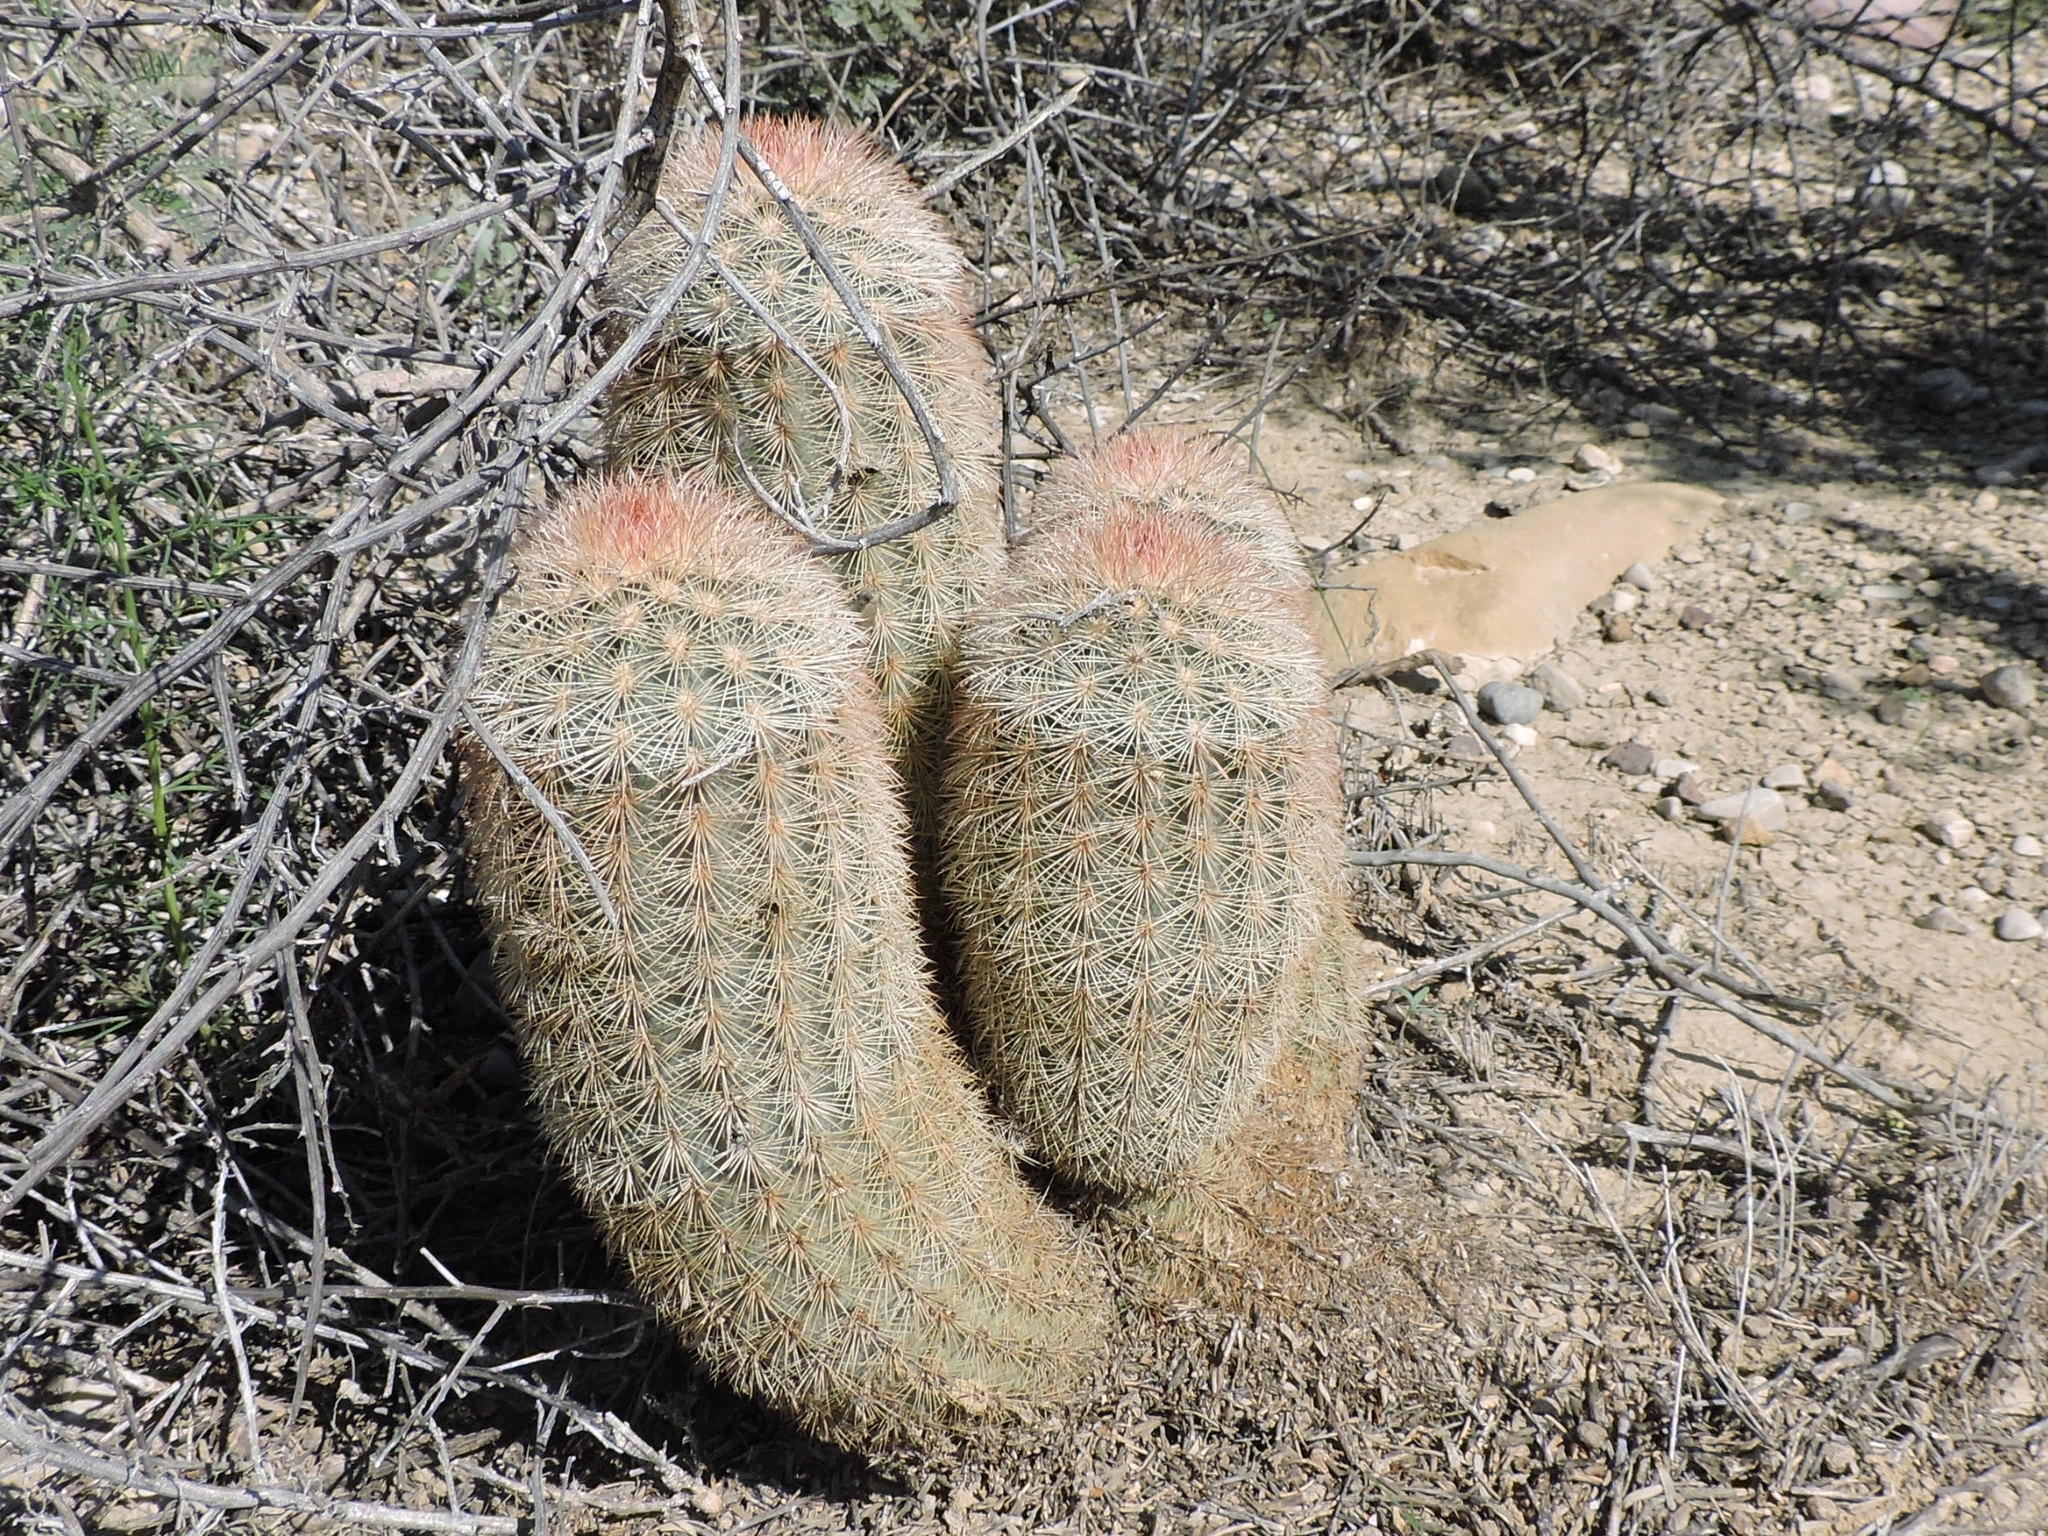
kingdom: Plantae
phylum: Tracheophyta
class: Magnoliopsida
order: Caryophyllales
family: Cactaceae
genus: Echinocereus
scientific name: Echinocereus dasyacanthus
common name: Spiny hedgehog cactus
